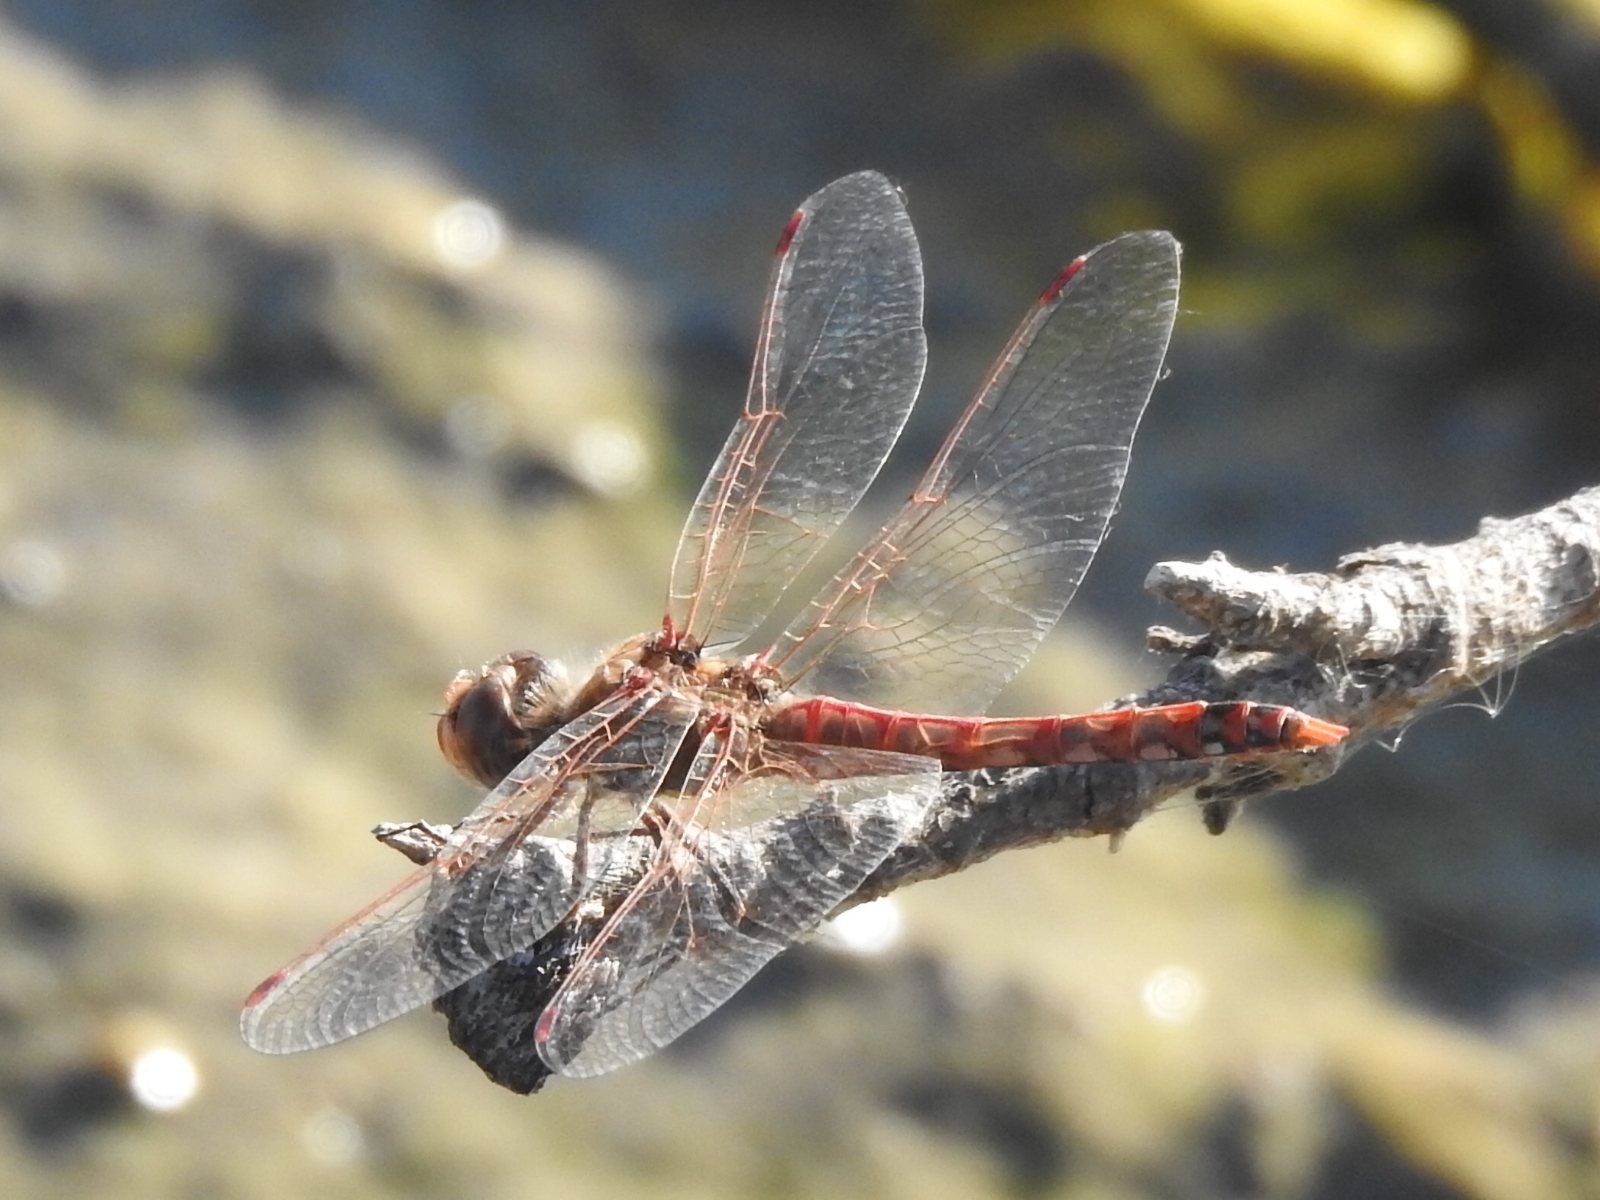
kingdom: Animalia
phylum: Arthropoda
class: Insecta
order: Odonata
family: Libellulidae
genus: Sympetrum
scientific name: Sympetrum corruptum
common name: Variegated meadowhawk
